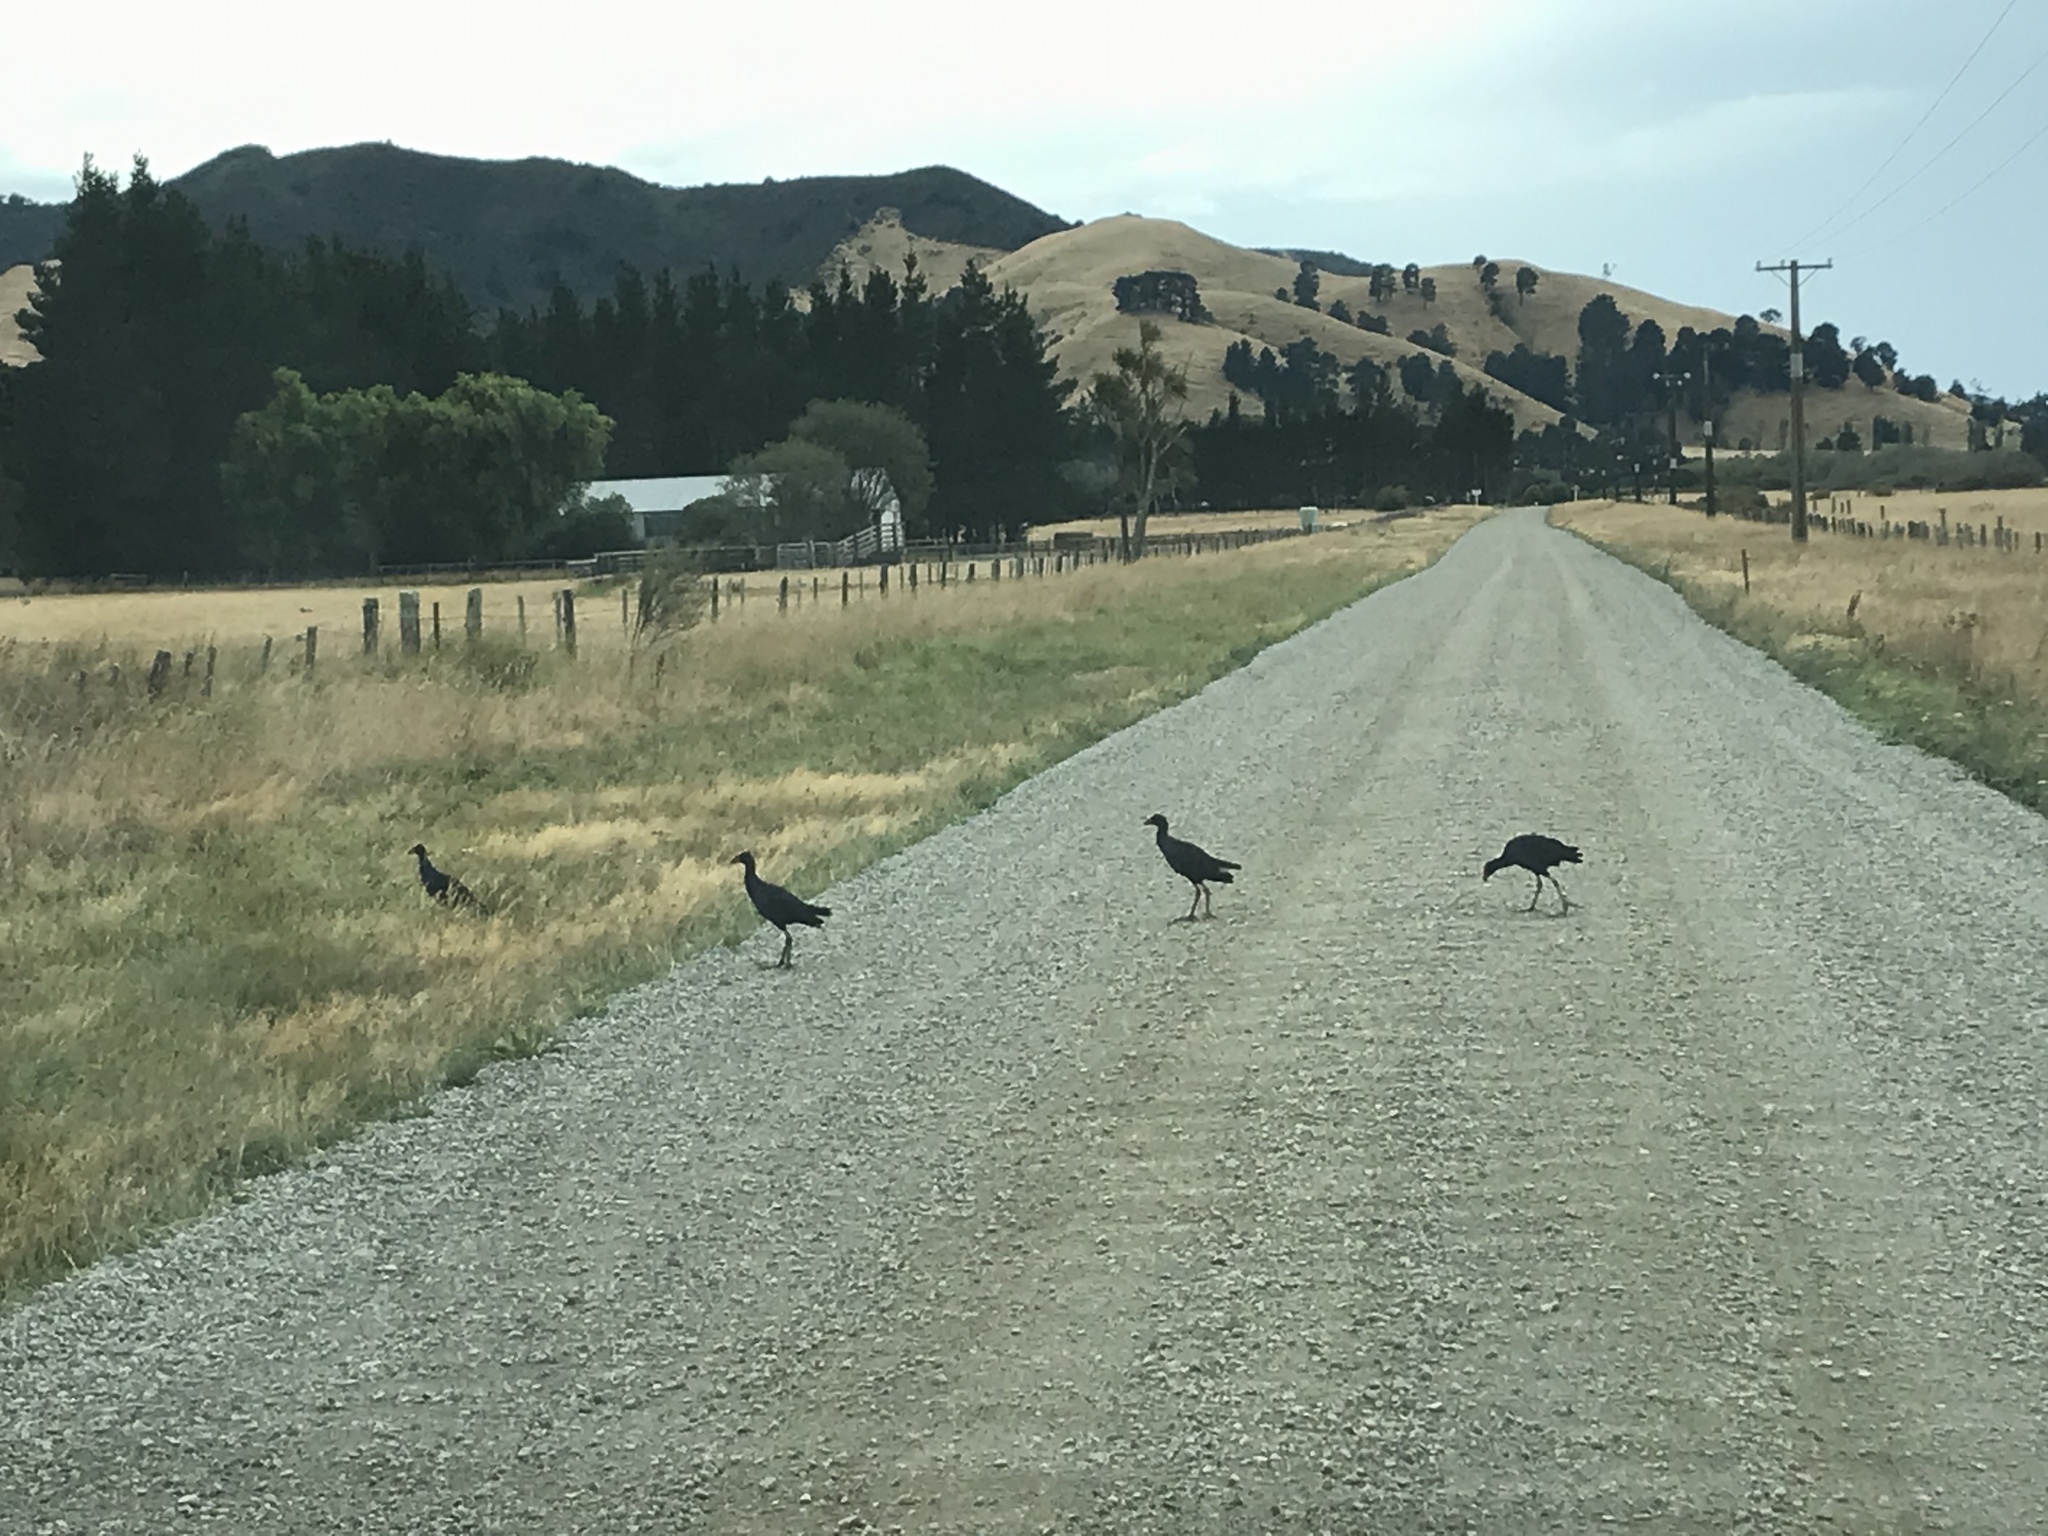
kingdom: Animalia
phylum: Chordata
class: Aves
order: Gruiformes
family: Rallidae
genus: Porphyrio
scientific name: Porphyrio melanotus
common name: Australasian swamphen
